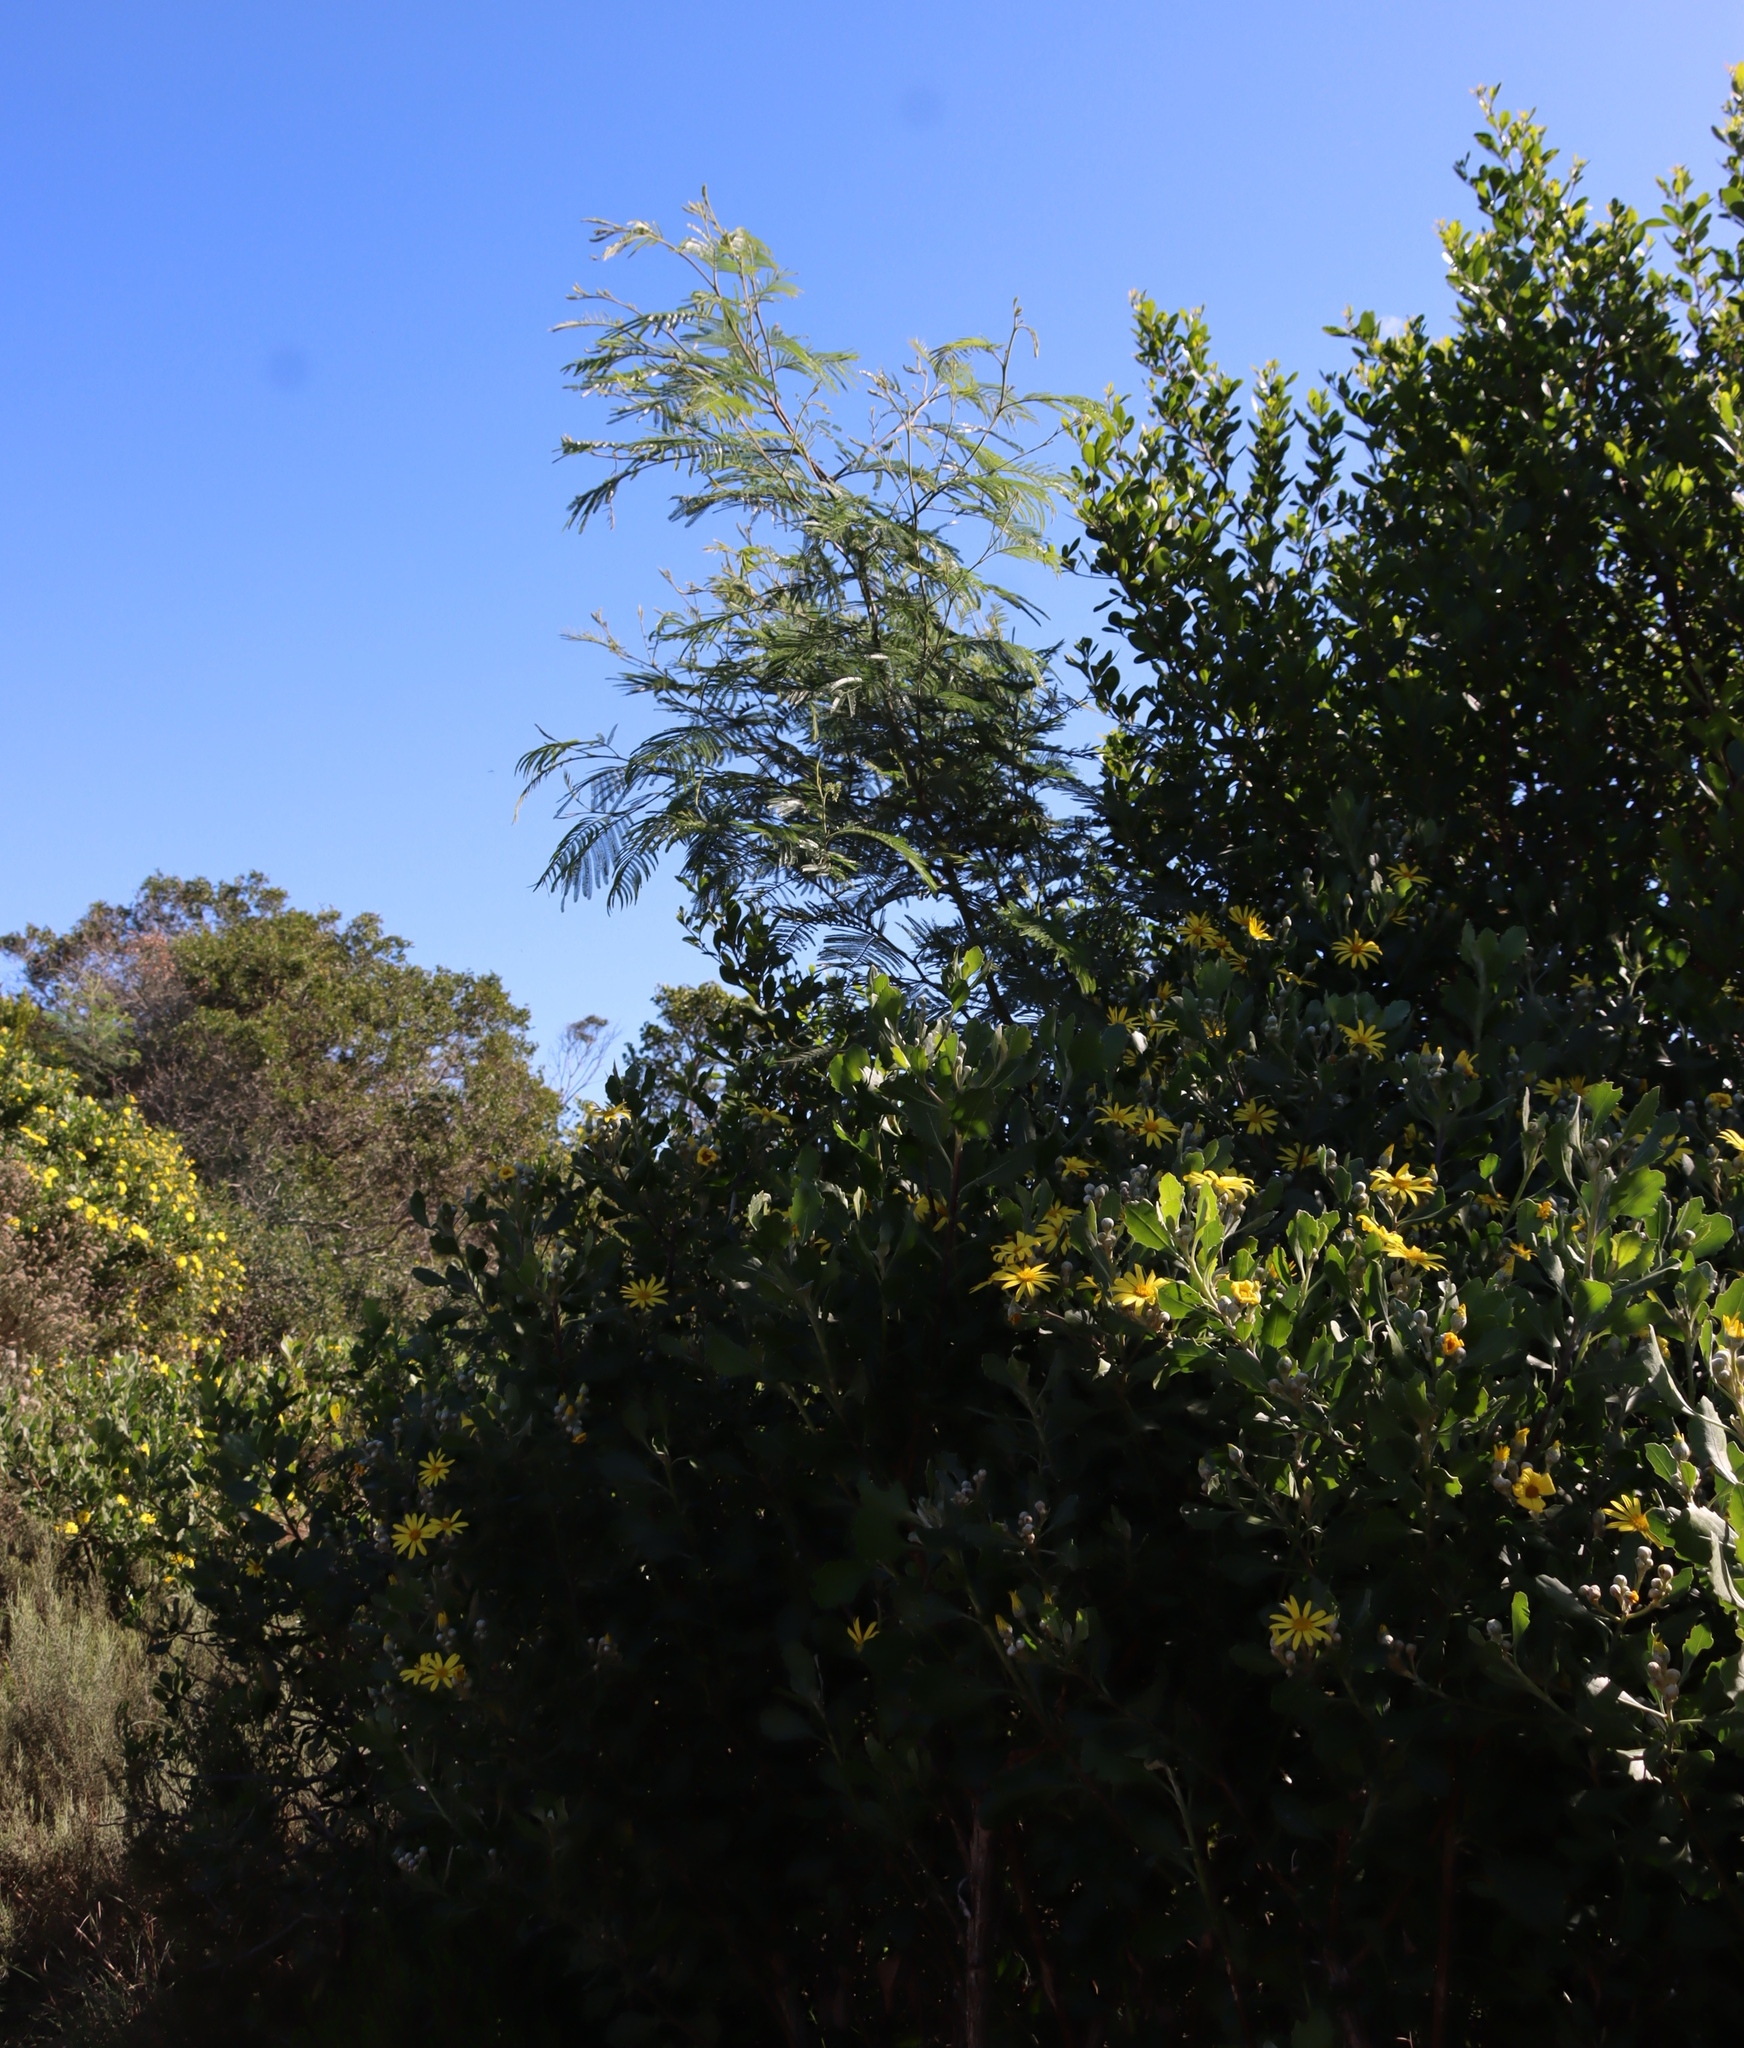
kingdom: Plantae
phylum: Tracheophyta
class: Magnoliopsida
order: Fabales
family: Fabaceae
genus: Acacia
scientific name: Acacia mearnsii
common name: Black wattle
